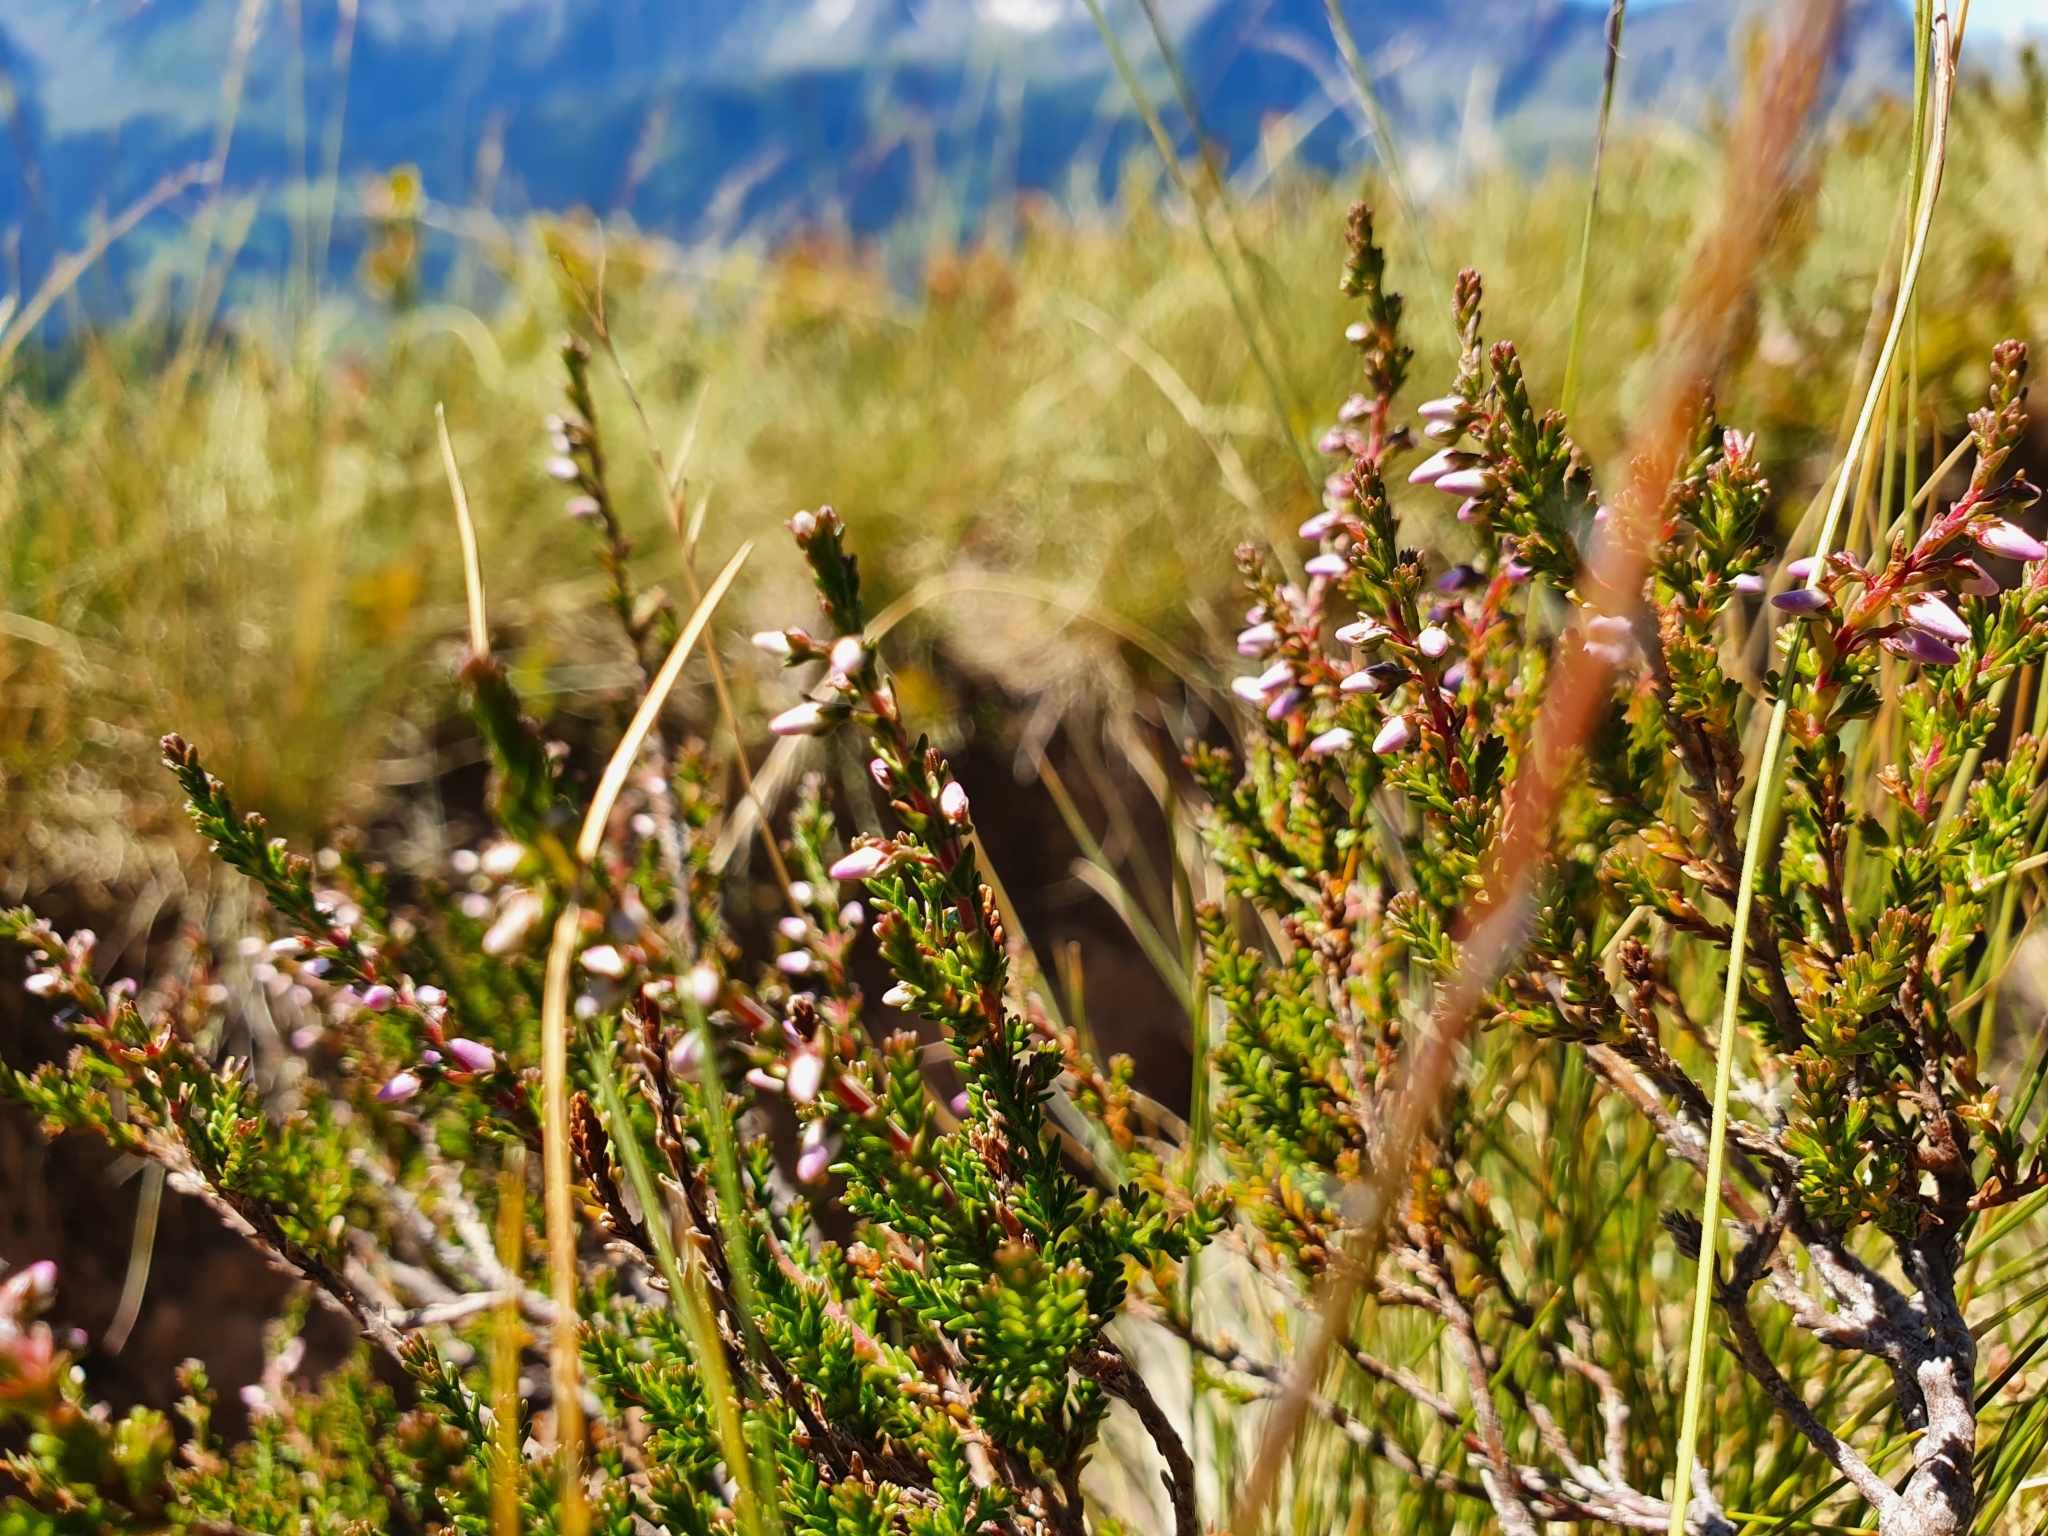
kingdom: Plantae
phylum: Tracheophyta
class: Magnoliopsida
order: Ericales
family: Ericaceae
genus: Calluna
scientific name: Calluna vulgaris
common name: Heather
